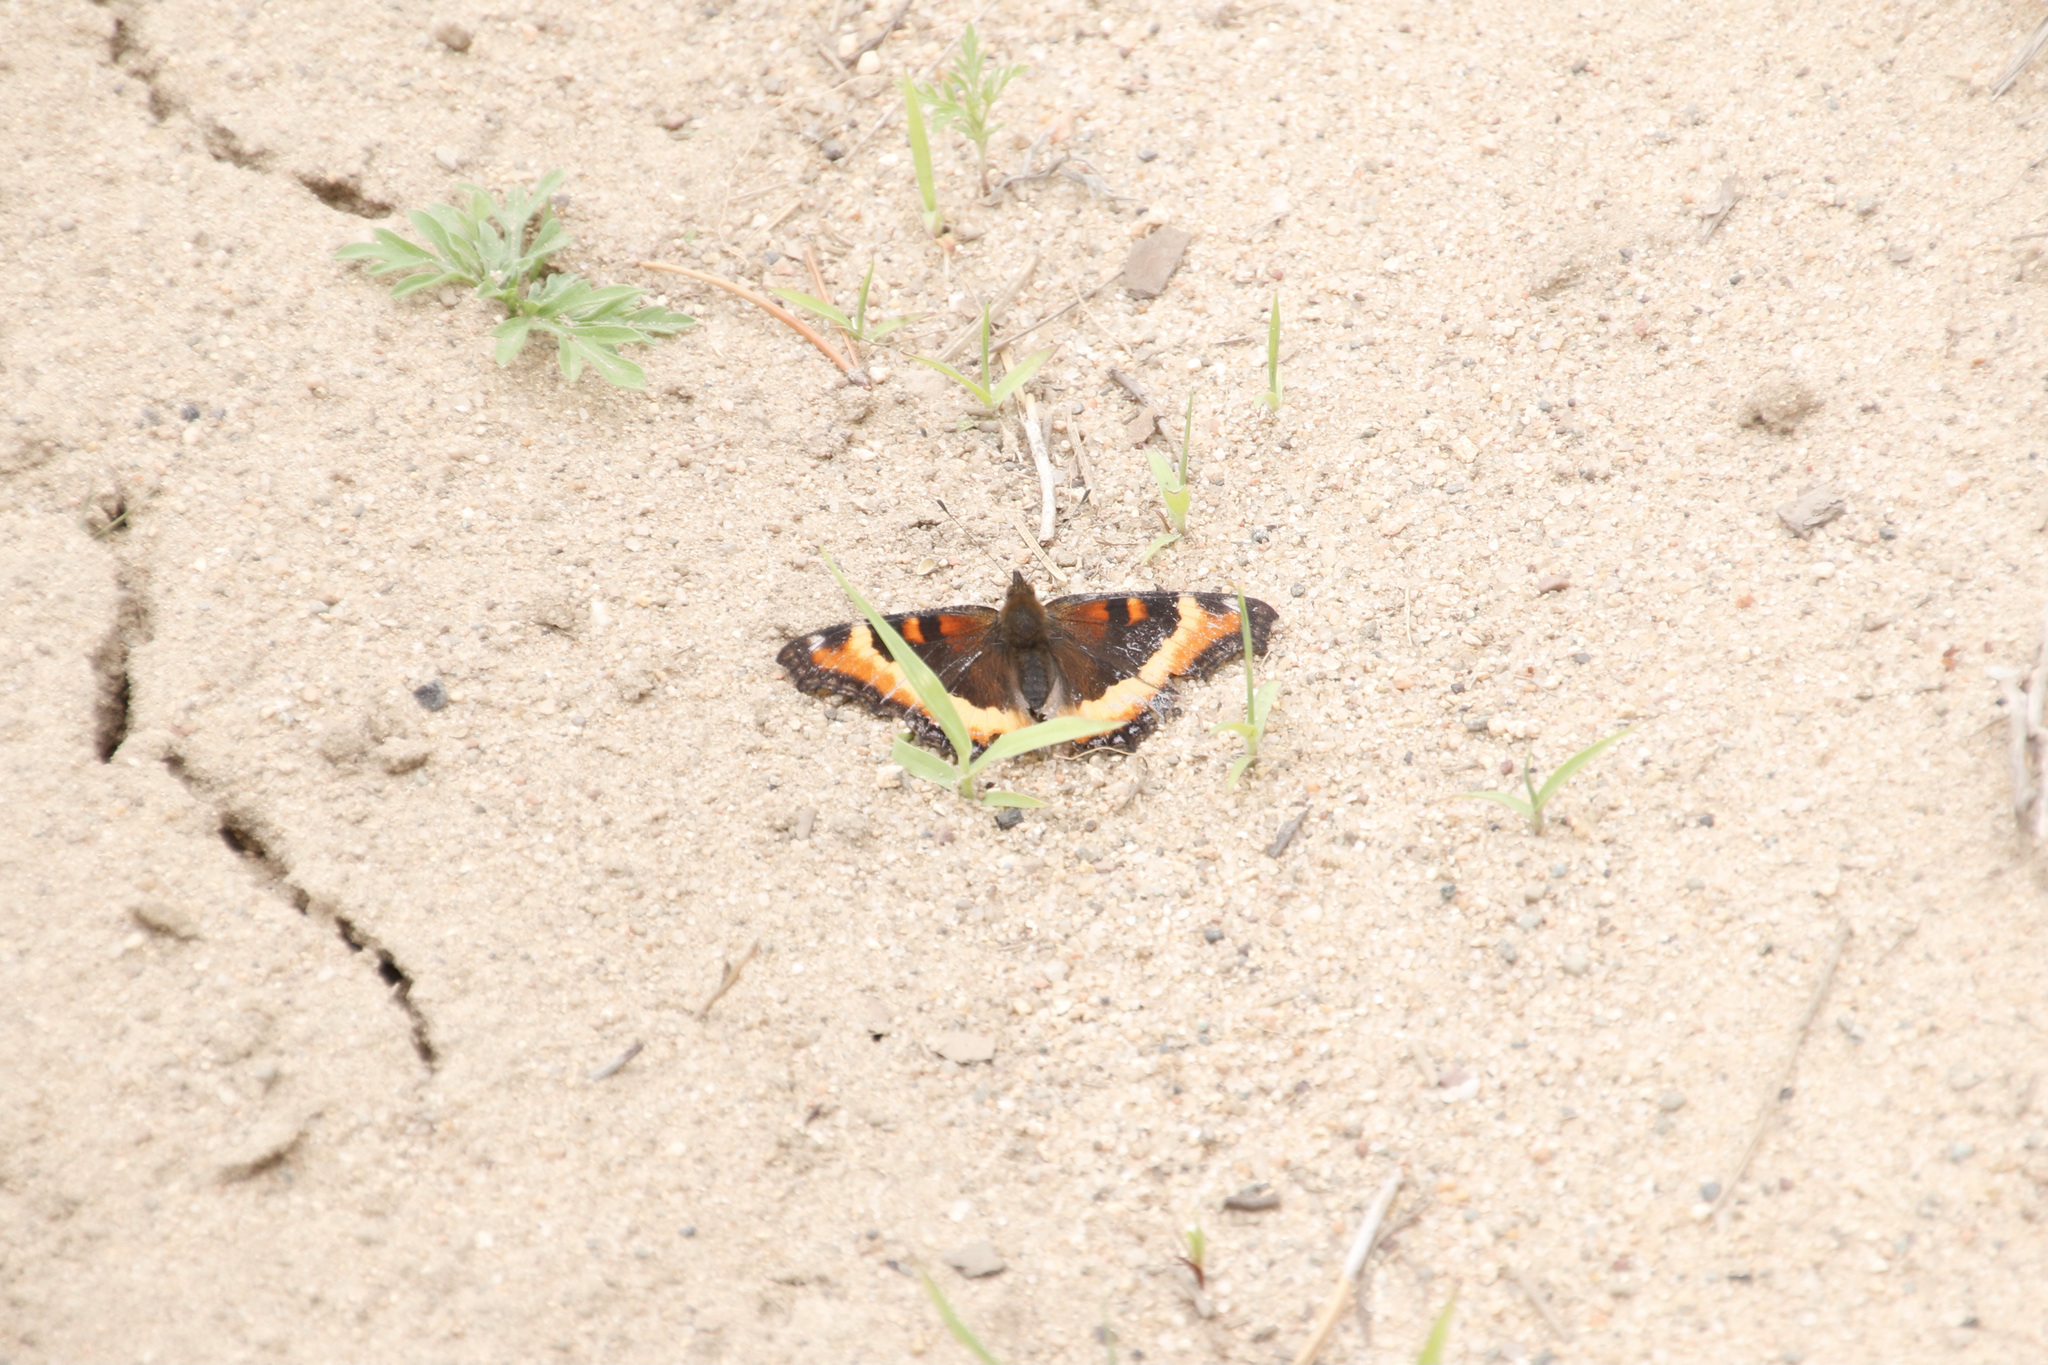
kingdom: Animalia
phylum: Arthropoda
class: Insecta
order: Lepidoptera
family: Nymphalidae
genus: Aglais
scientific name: Aglais milberti
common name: Milbert's tortoiseshell
